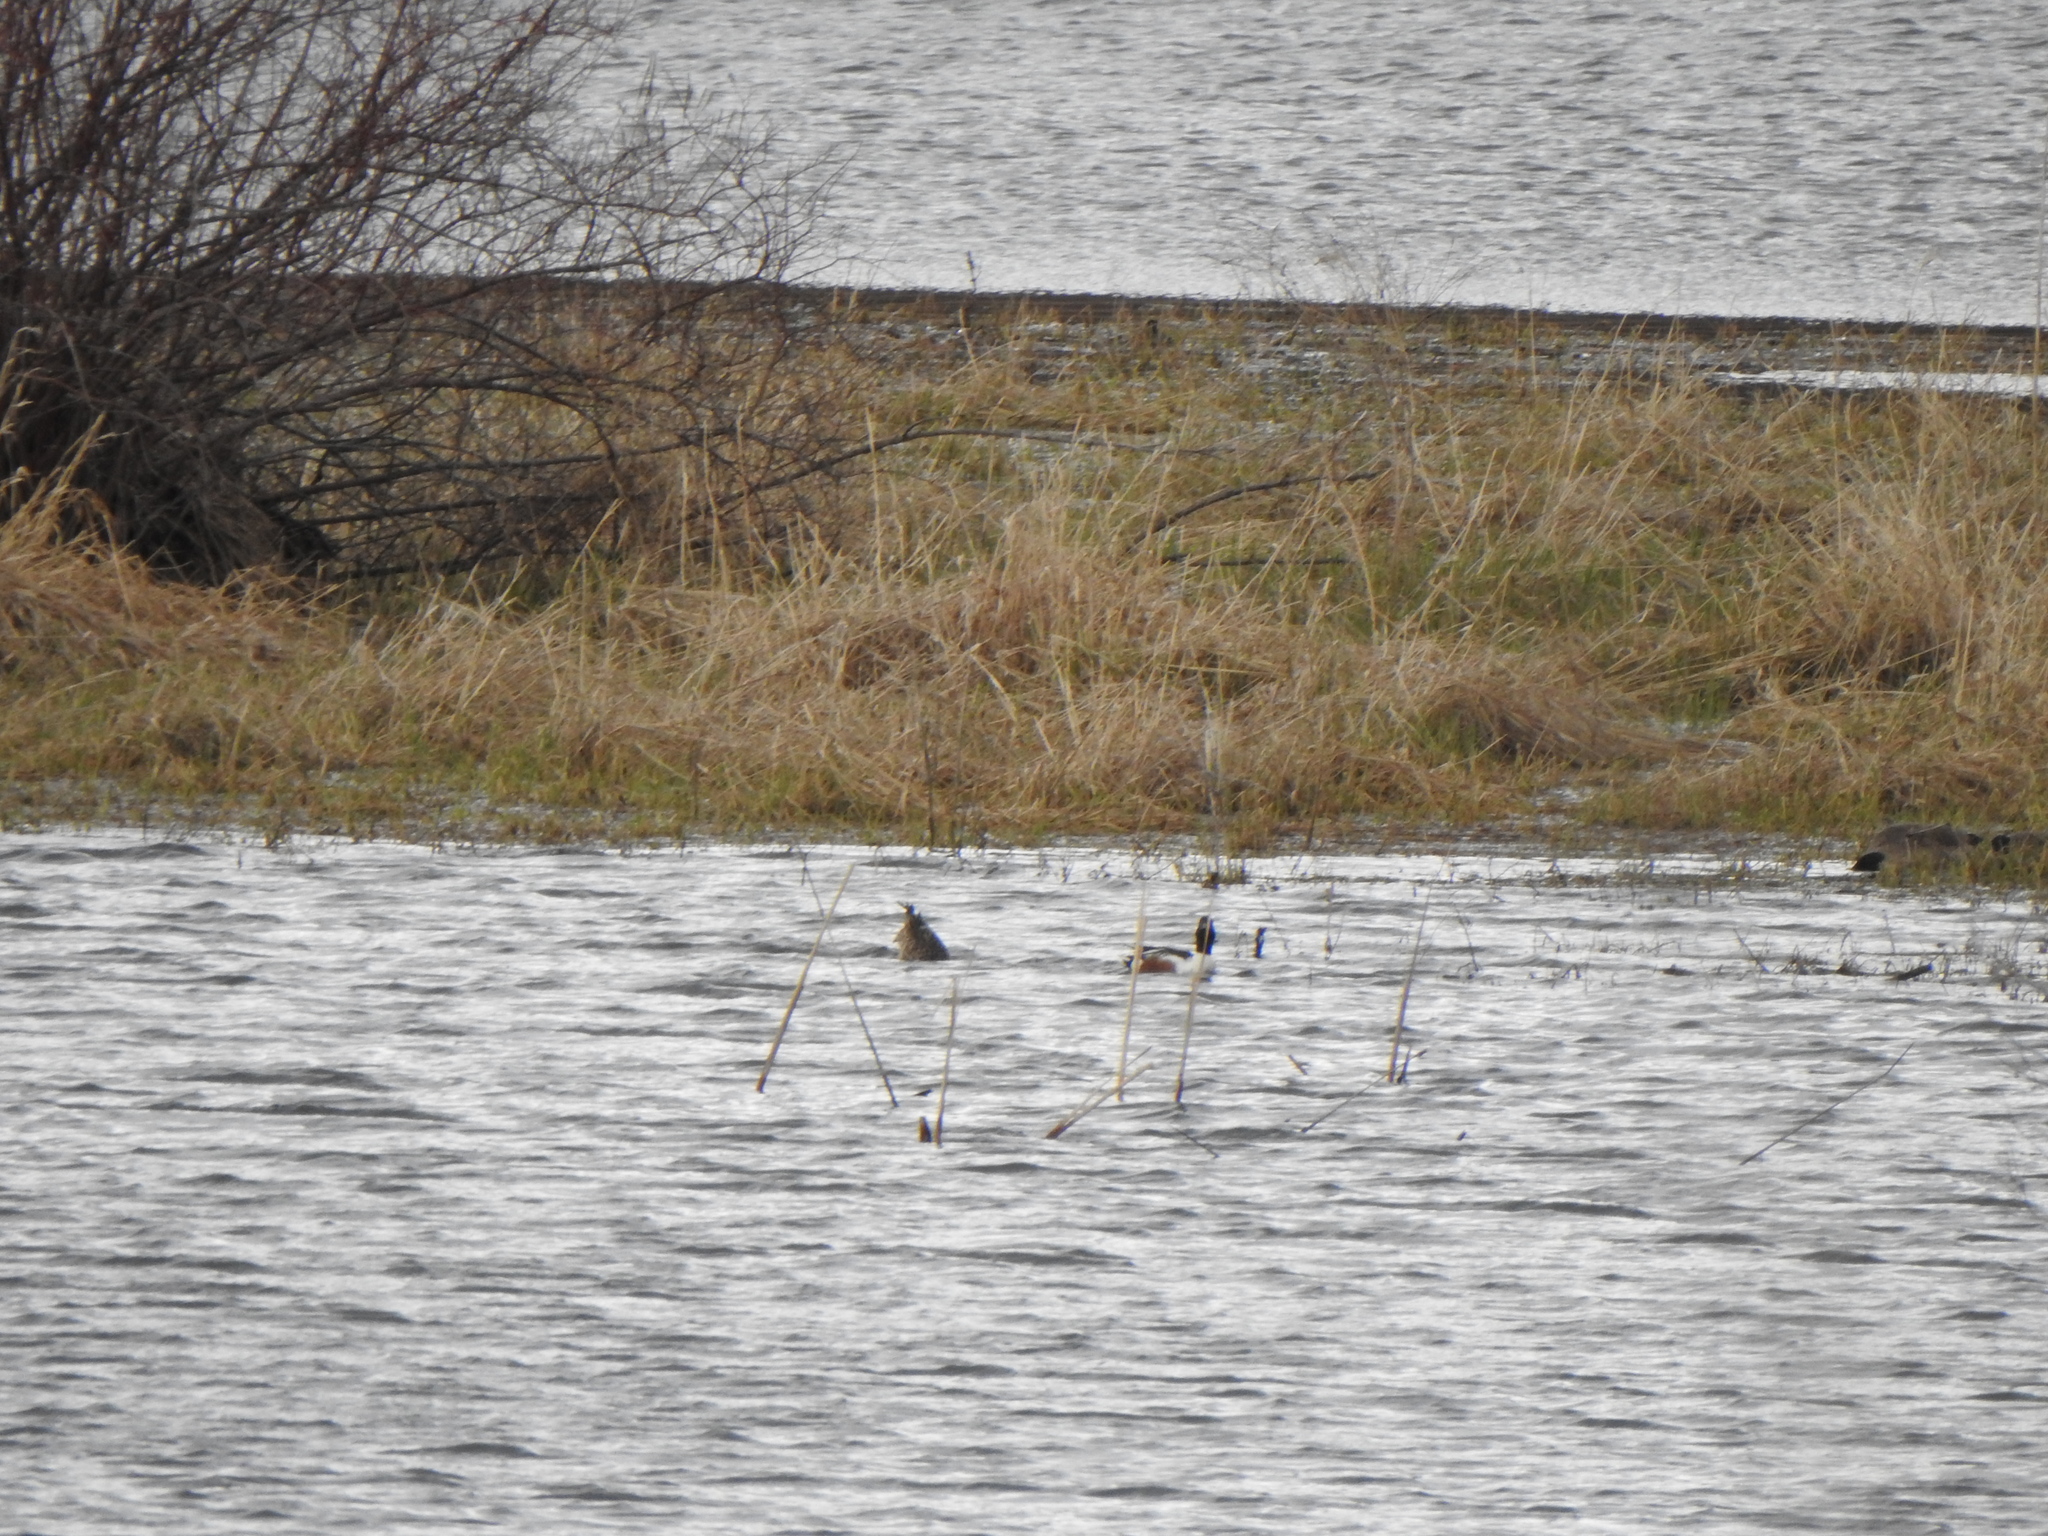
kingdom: Animalia
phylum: Chordata
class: Aves
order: Anseriformes
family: Anatidae
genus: Spatula
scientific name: Spatula clypeata
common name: Northern shoveler
